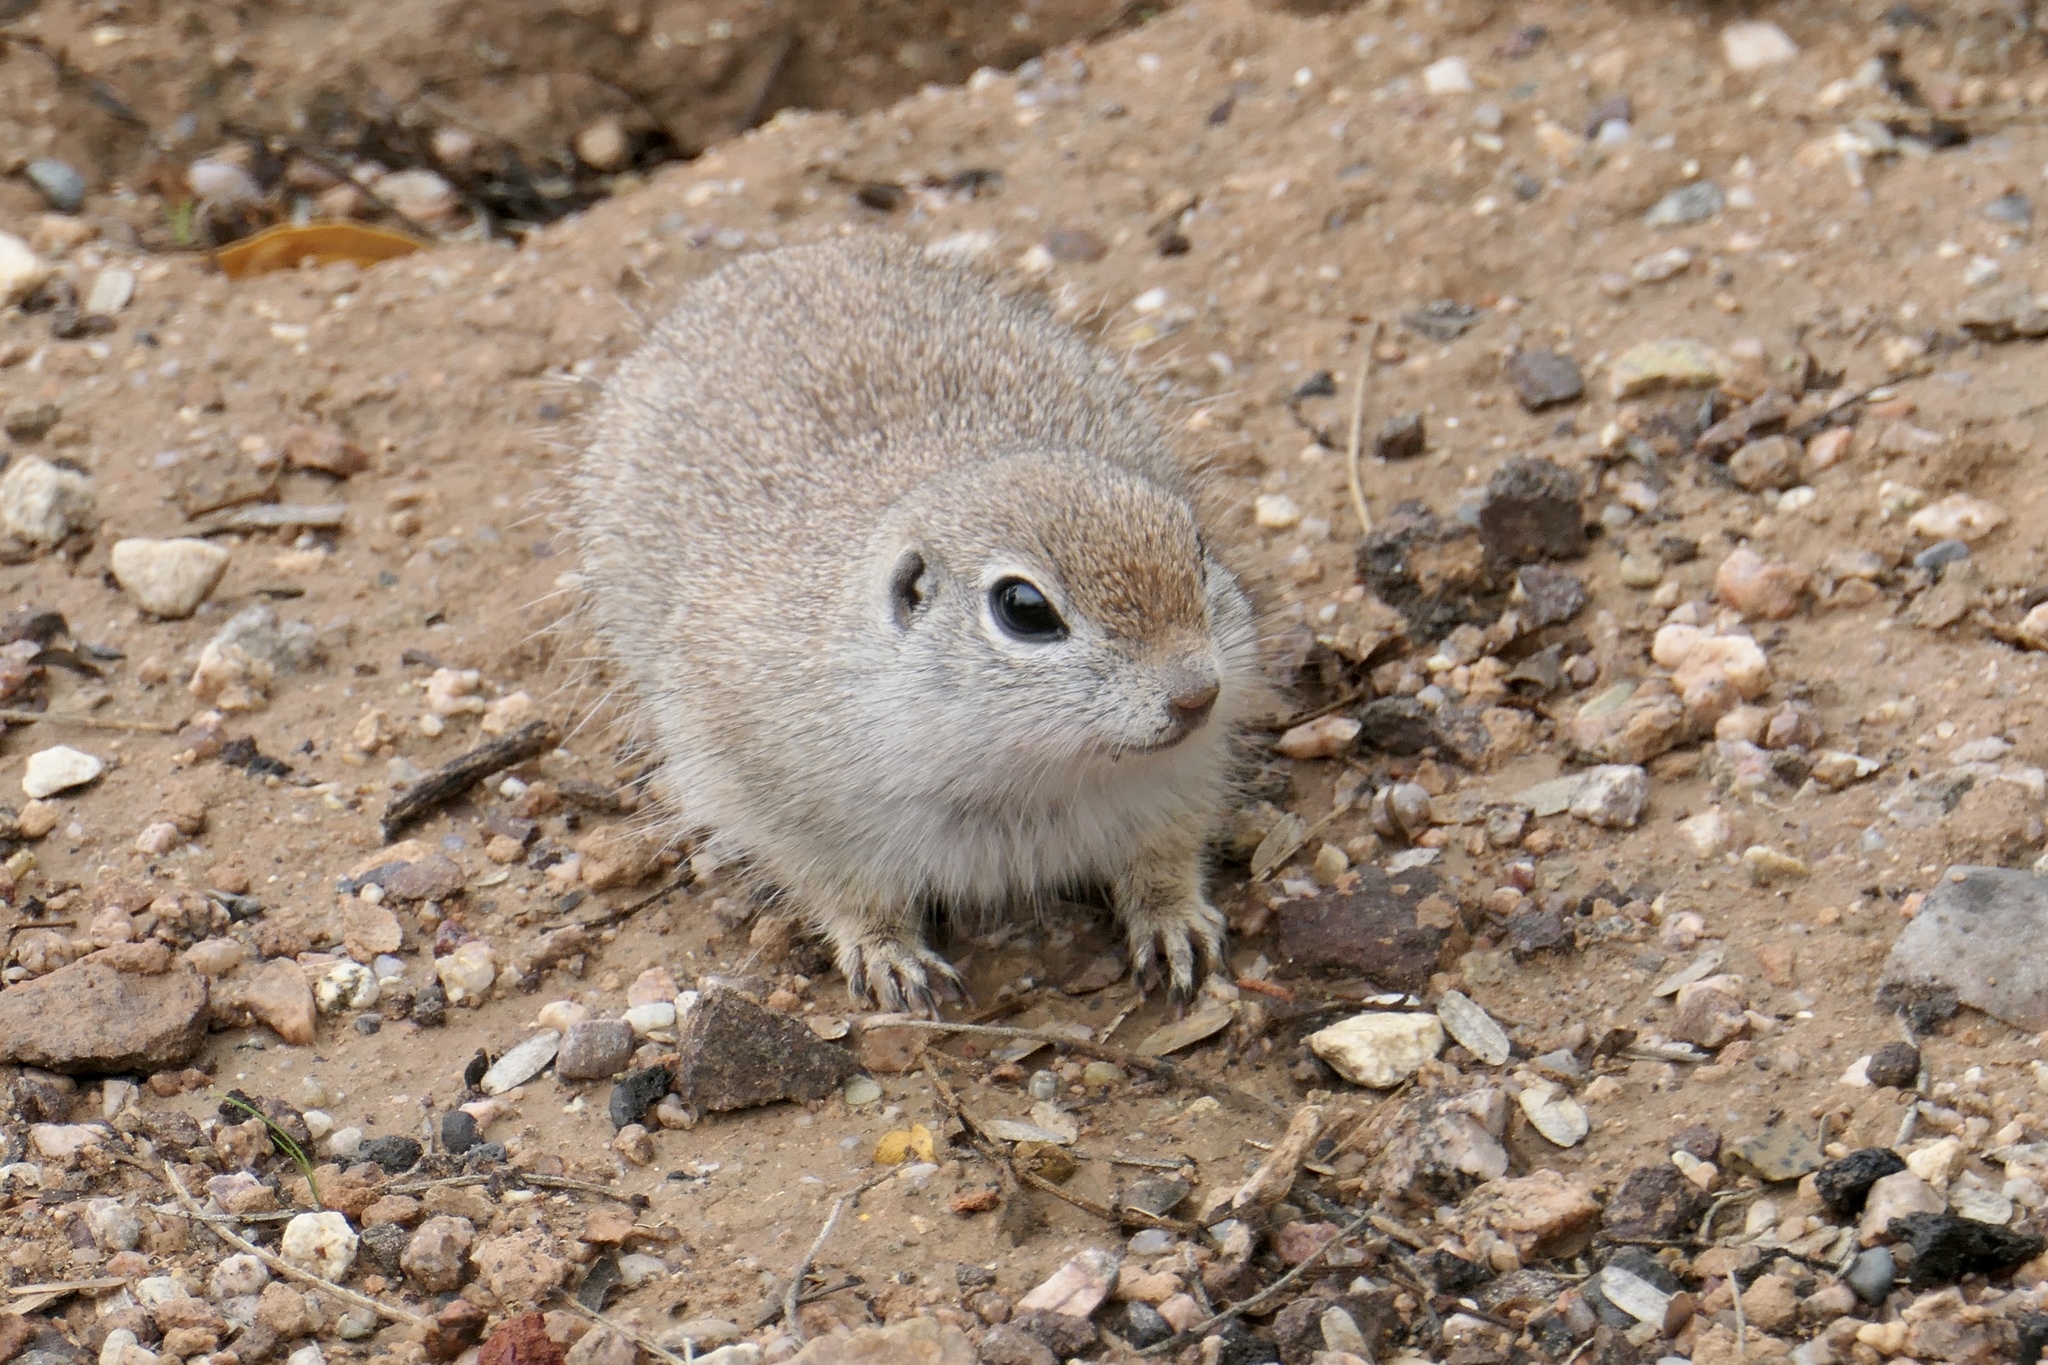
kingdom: Animalia
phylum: Chordata
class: Mammalia
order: Rodentia
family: Sciuridae
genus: Xerospermophilus
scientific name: Xerospermophilus tereticaudus
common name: Round-tailed ground squirrel
